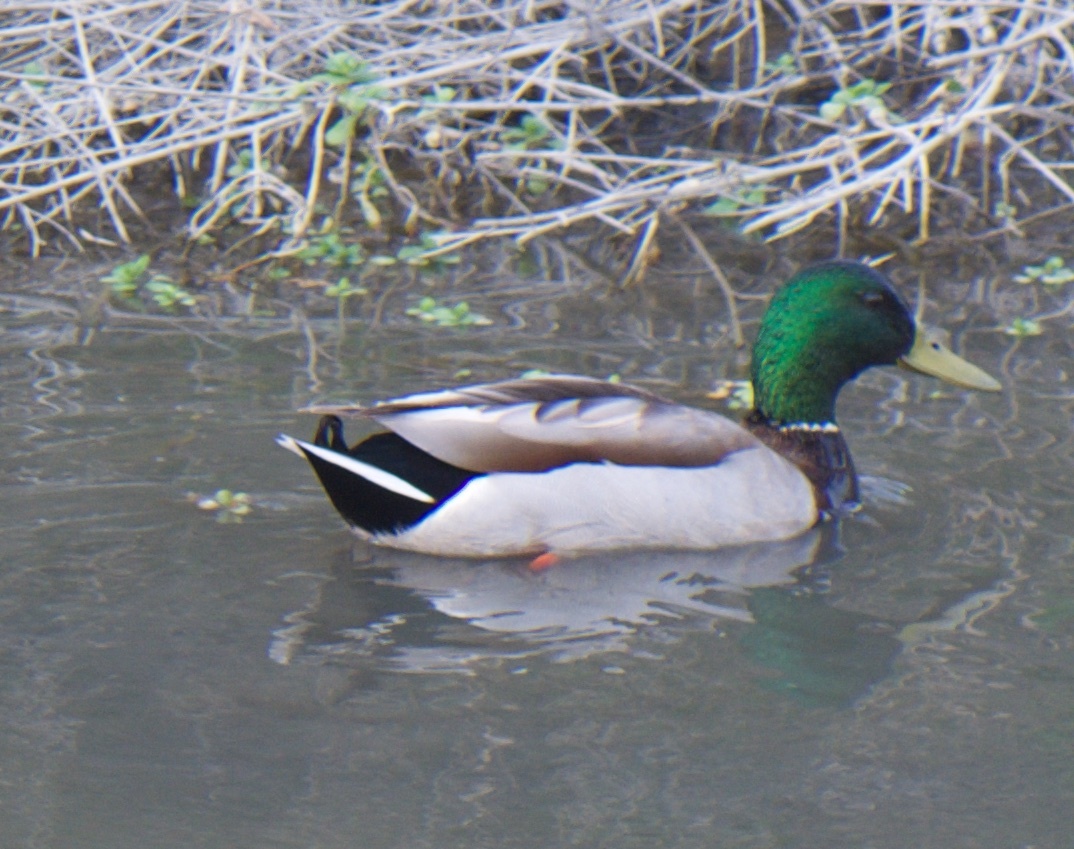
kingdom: Animalia
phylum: Chordata
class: Aves
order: Anseriformes
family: Anatidae
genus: Anas
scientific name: Anas platyrhynchos
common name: Mallard
